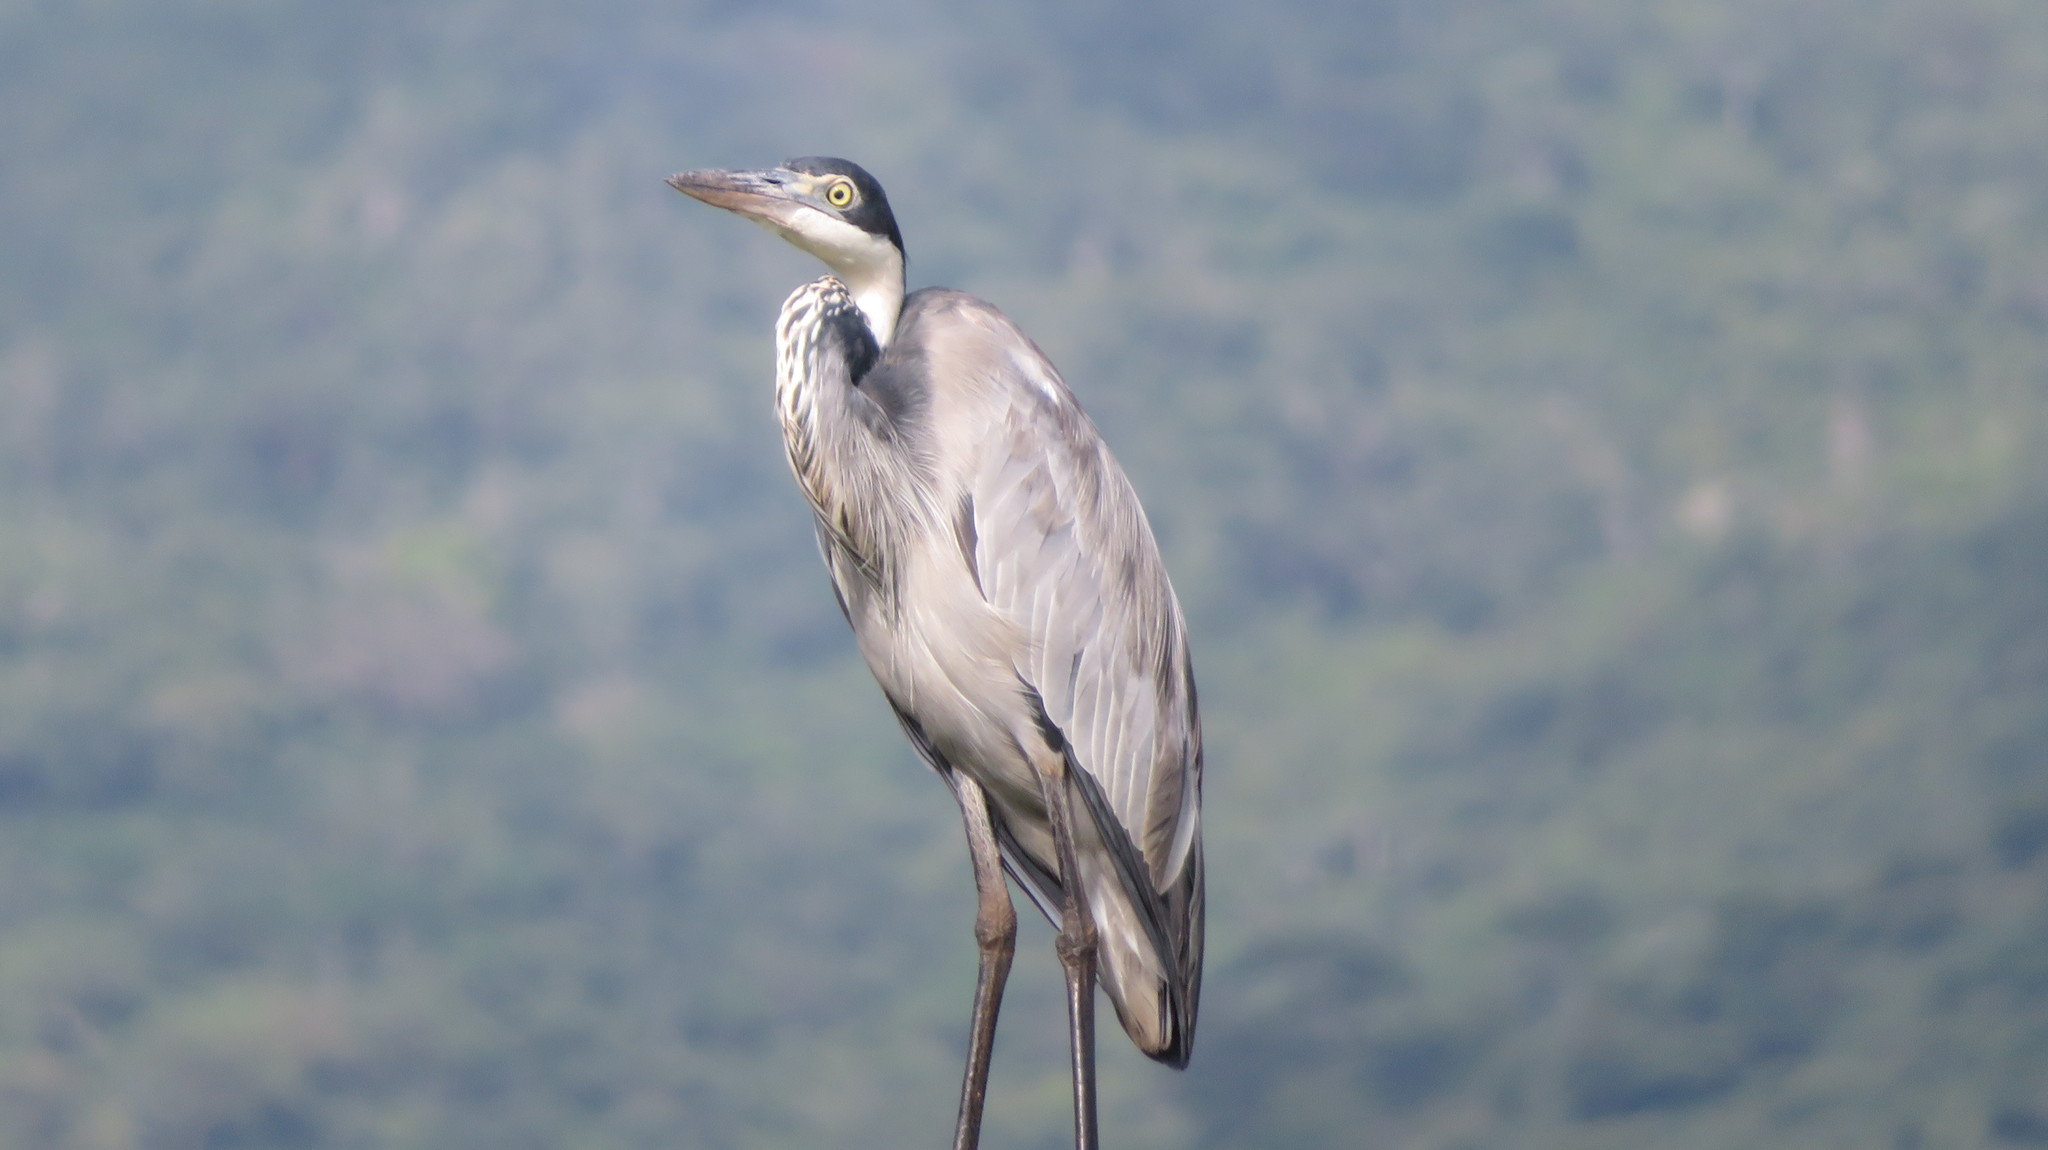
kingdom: Animalia
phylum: Chordata
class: Aves
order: Pelecaniformes
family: Ardeidae
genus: Ardea
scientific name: Ardea melanocephala
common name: Black-headed heron
